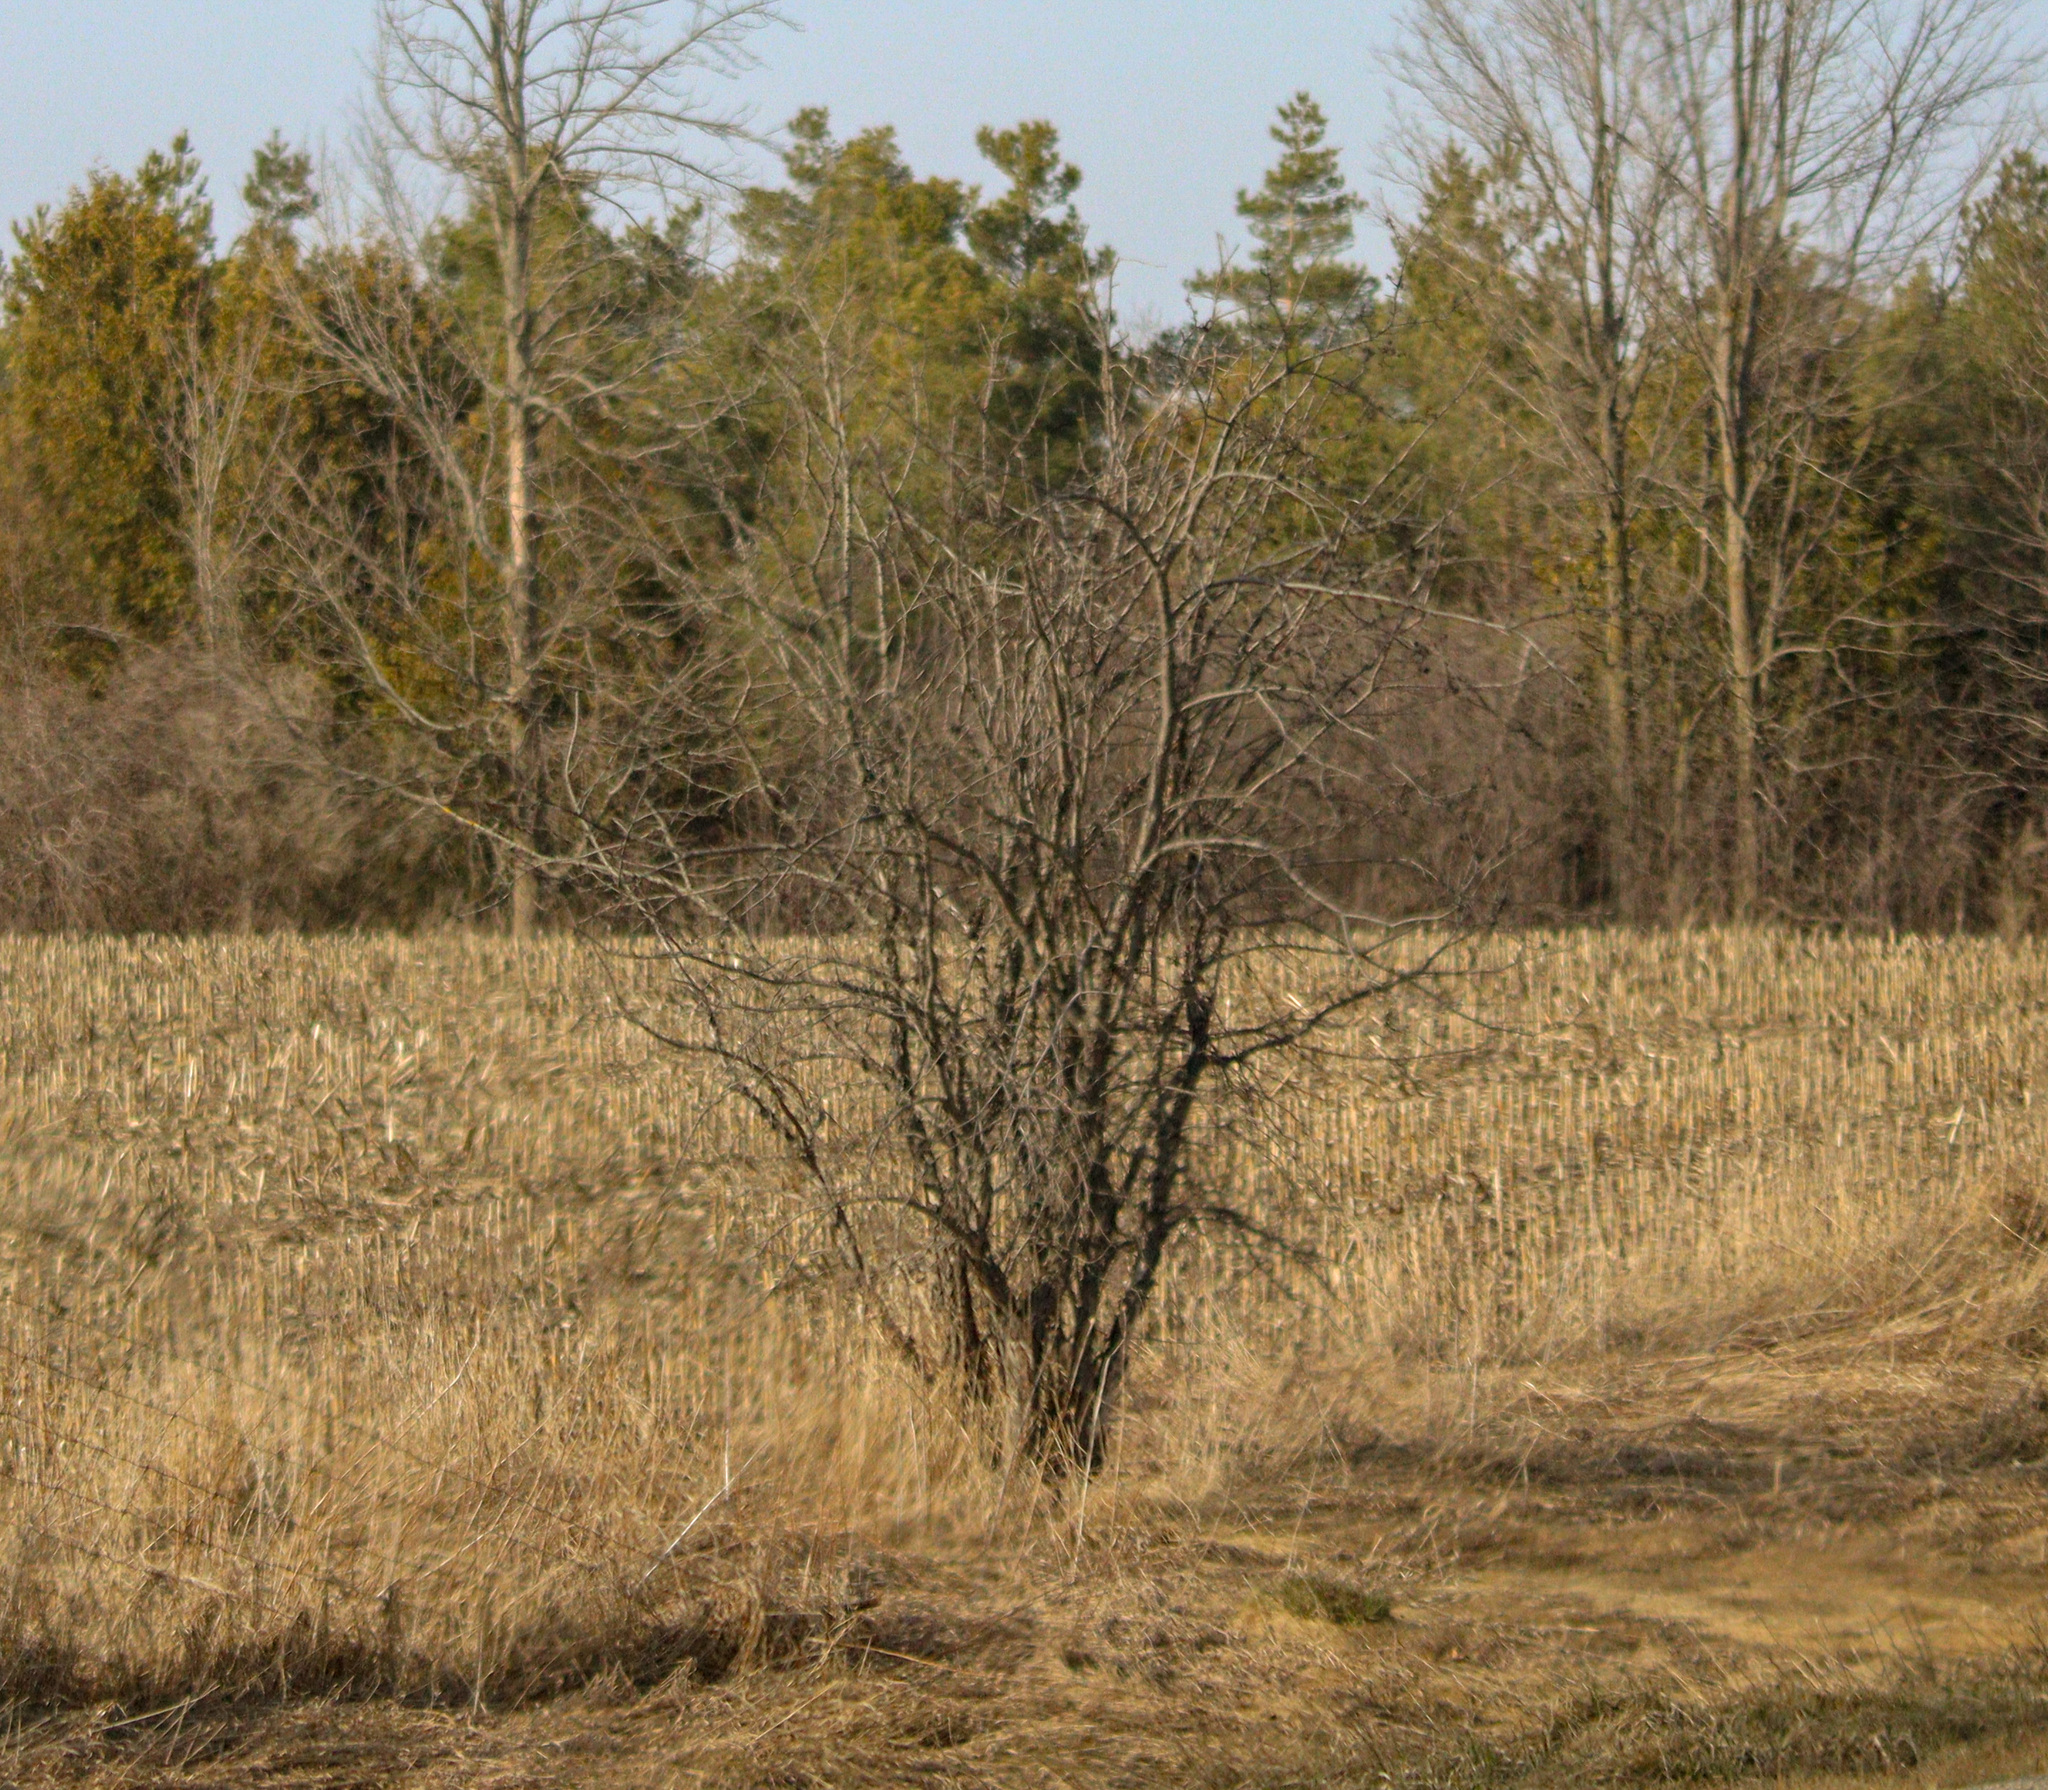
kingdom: Plantae
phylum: Tracheophyta
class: Magnoliopsida
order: Rosales
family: Rhamnaceae
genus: Rhamnus
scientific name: Rhamnus cathartica
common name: Common buckthorn
